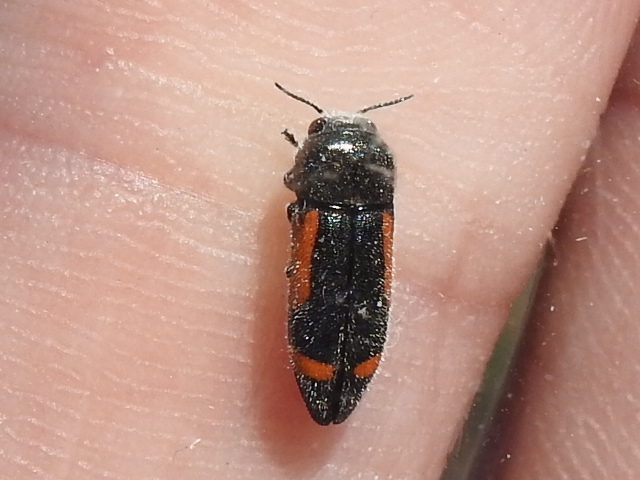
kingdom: Animalia
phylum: Arthropoda
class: Insecta
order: Coleoptera
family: Buprestidae
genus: Ptosima
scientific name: Ptosima laeta
